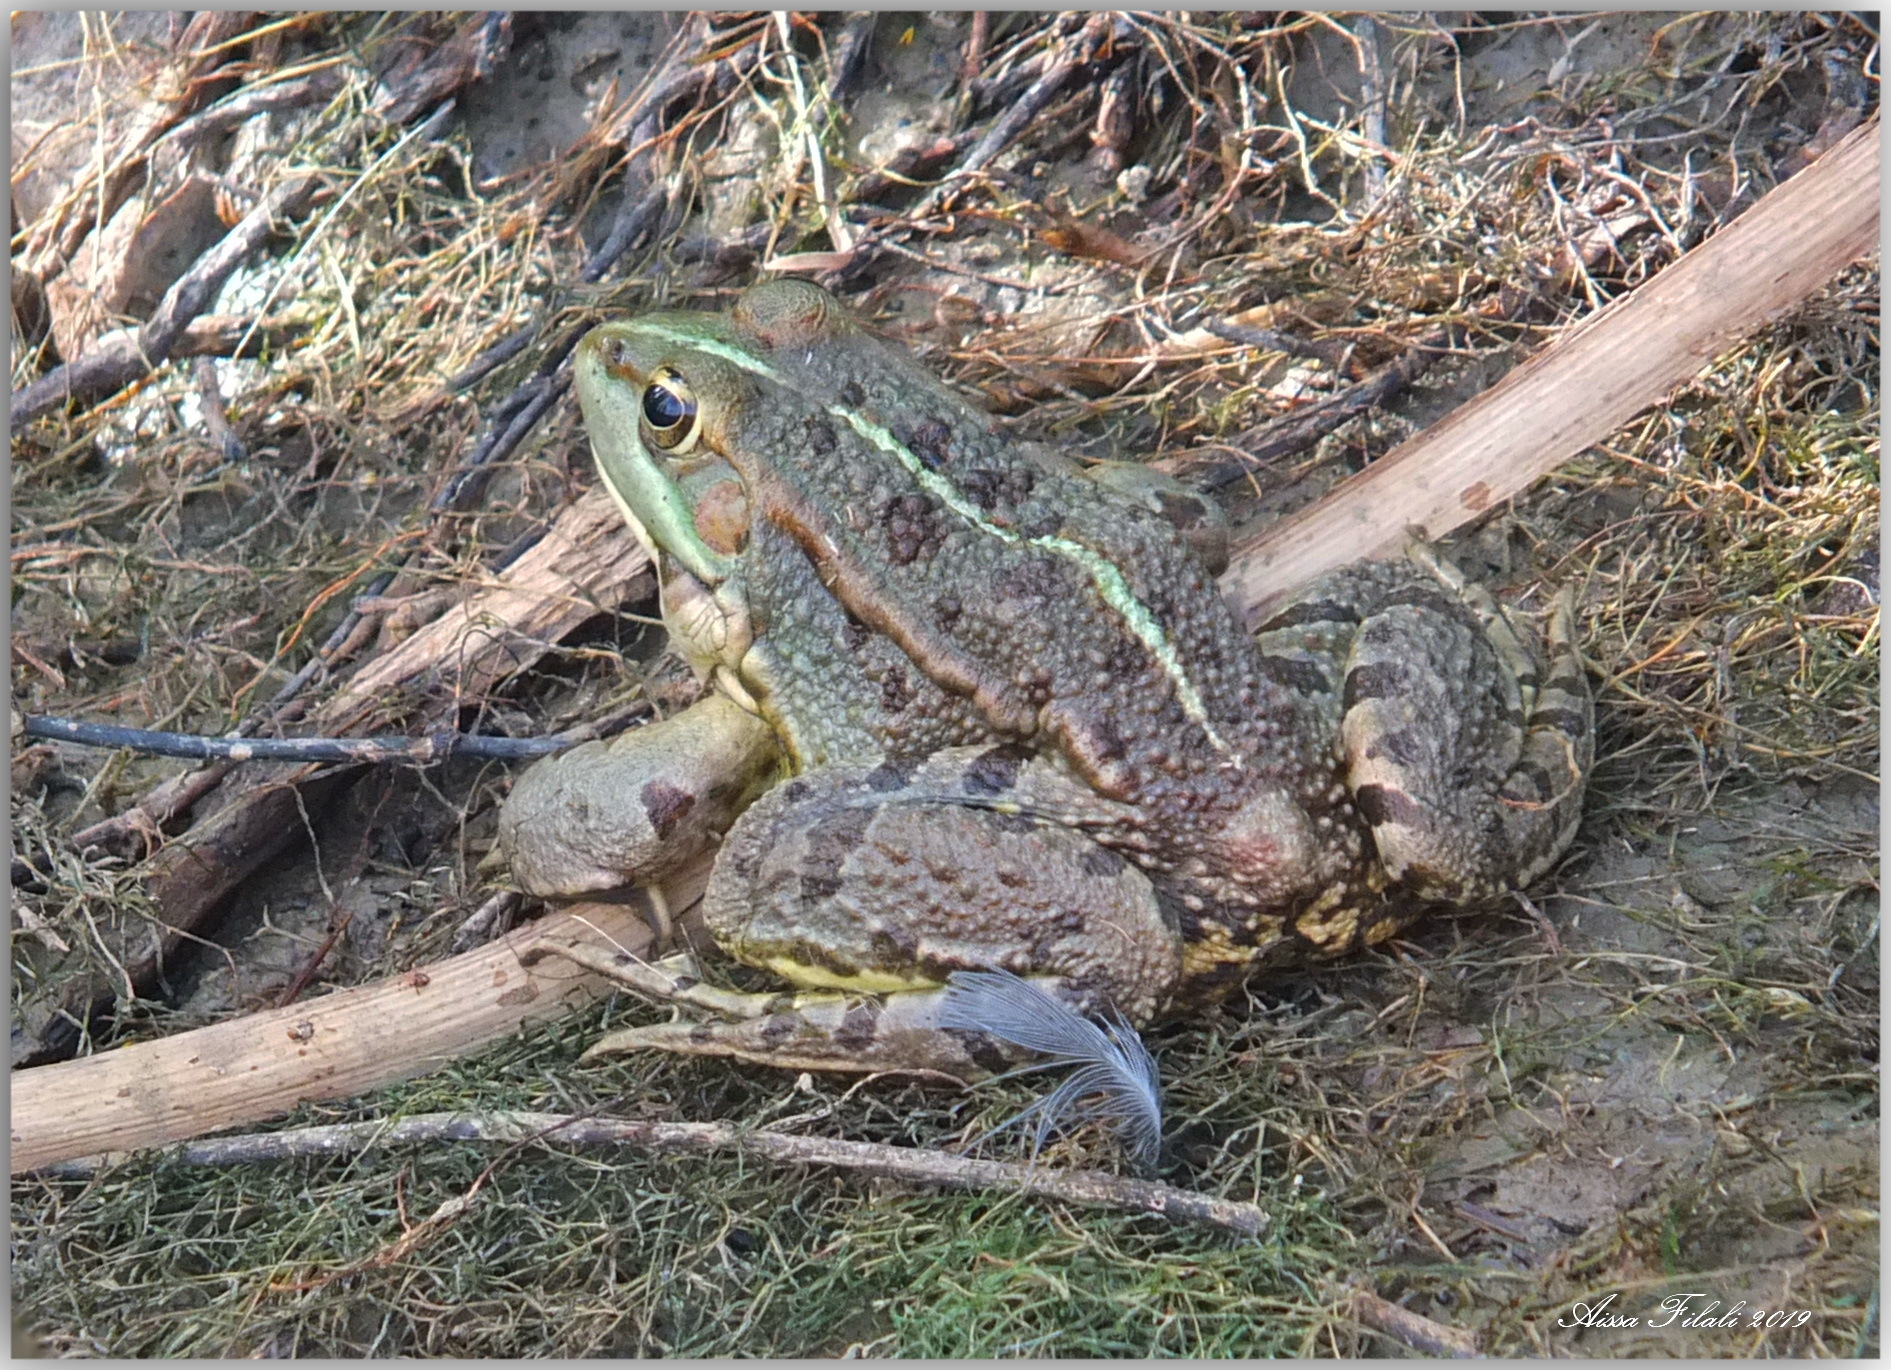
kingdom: Animalia
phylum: Chordata
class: Amphibia
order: Anura
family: Ranidae
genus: Pelophylax
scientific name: Pelophylax saharicus
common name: Sahara frog
